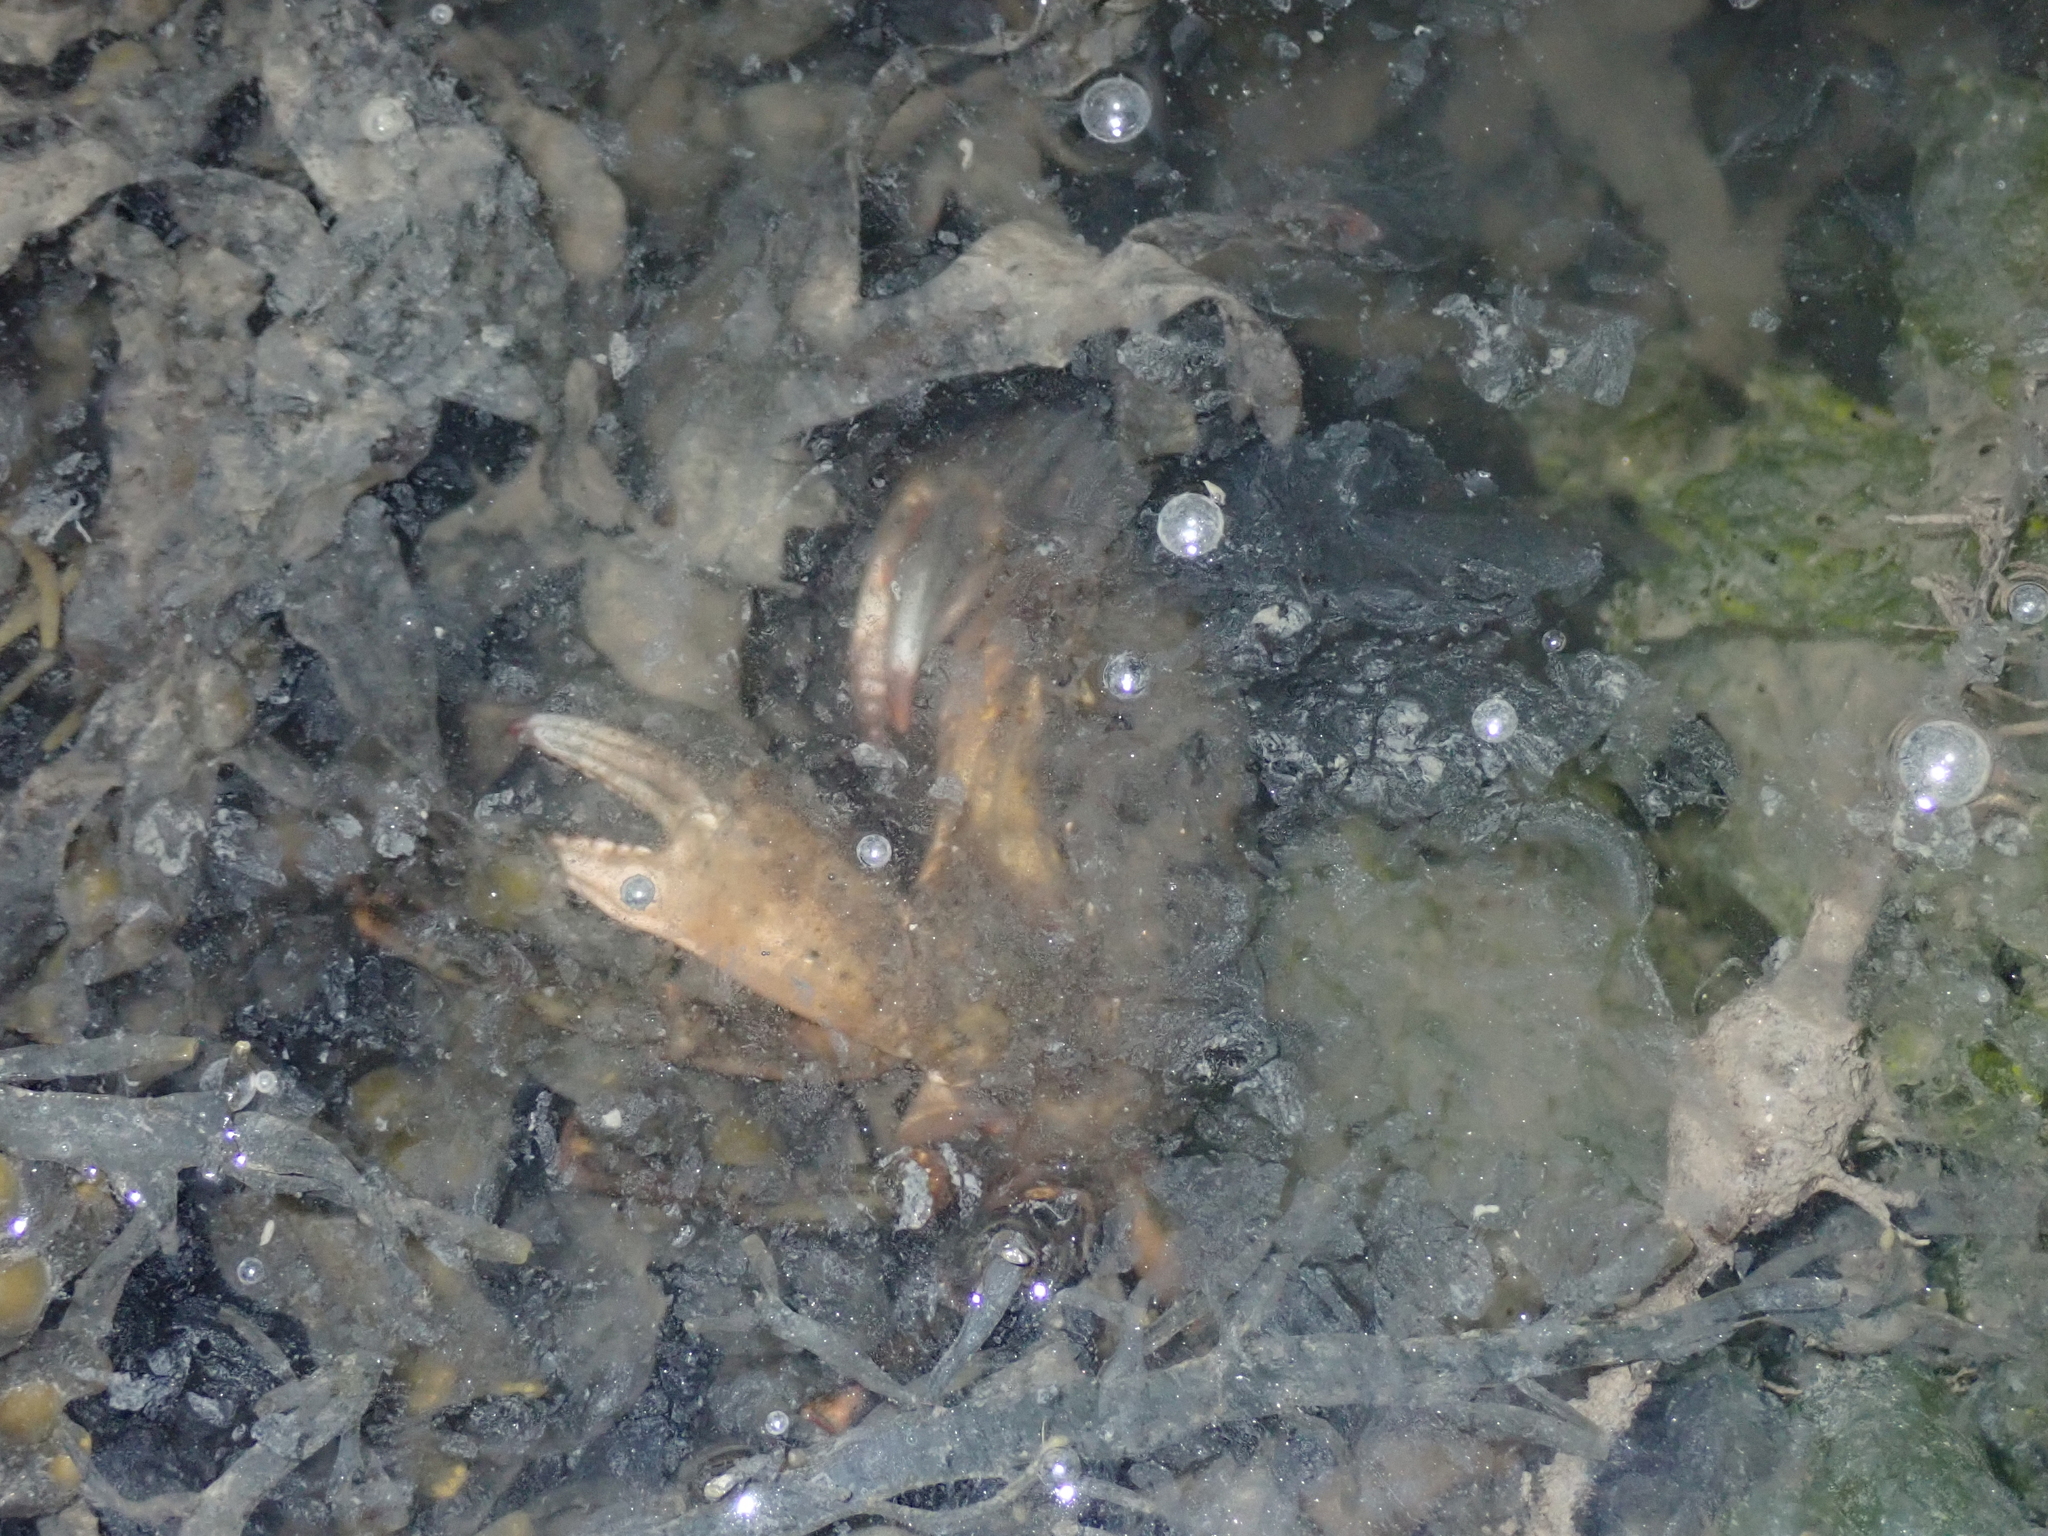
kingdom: Animalia
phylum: Arthropoda
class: Malacostraca
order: Decapoda
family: Carcinidae
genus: Carcinus
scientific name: Carcinus maenas
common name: European green crab
